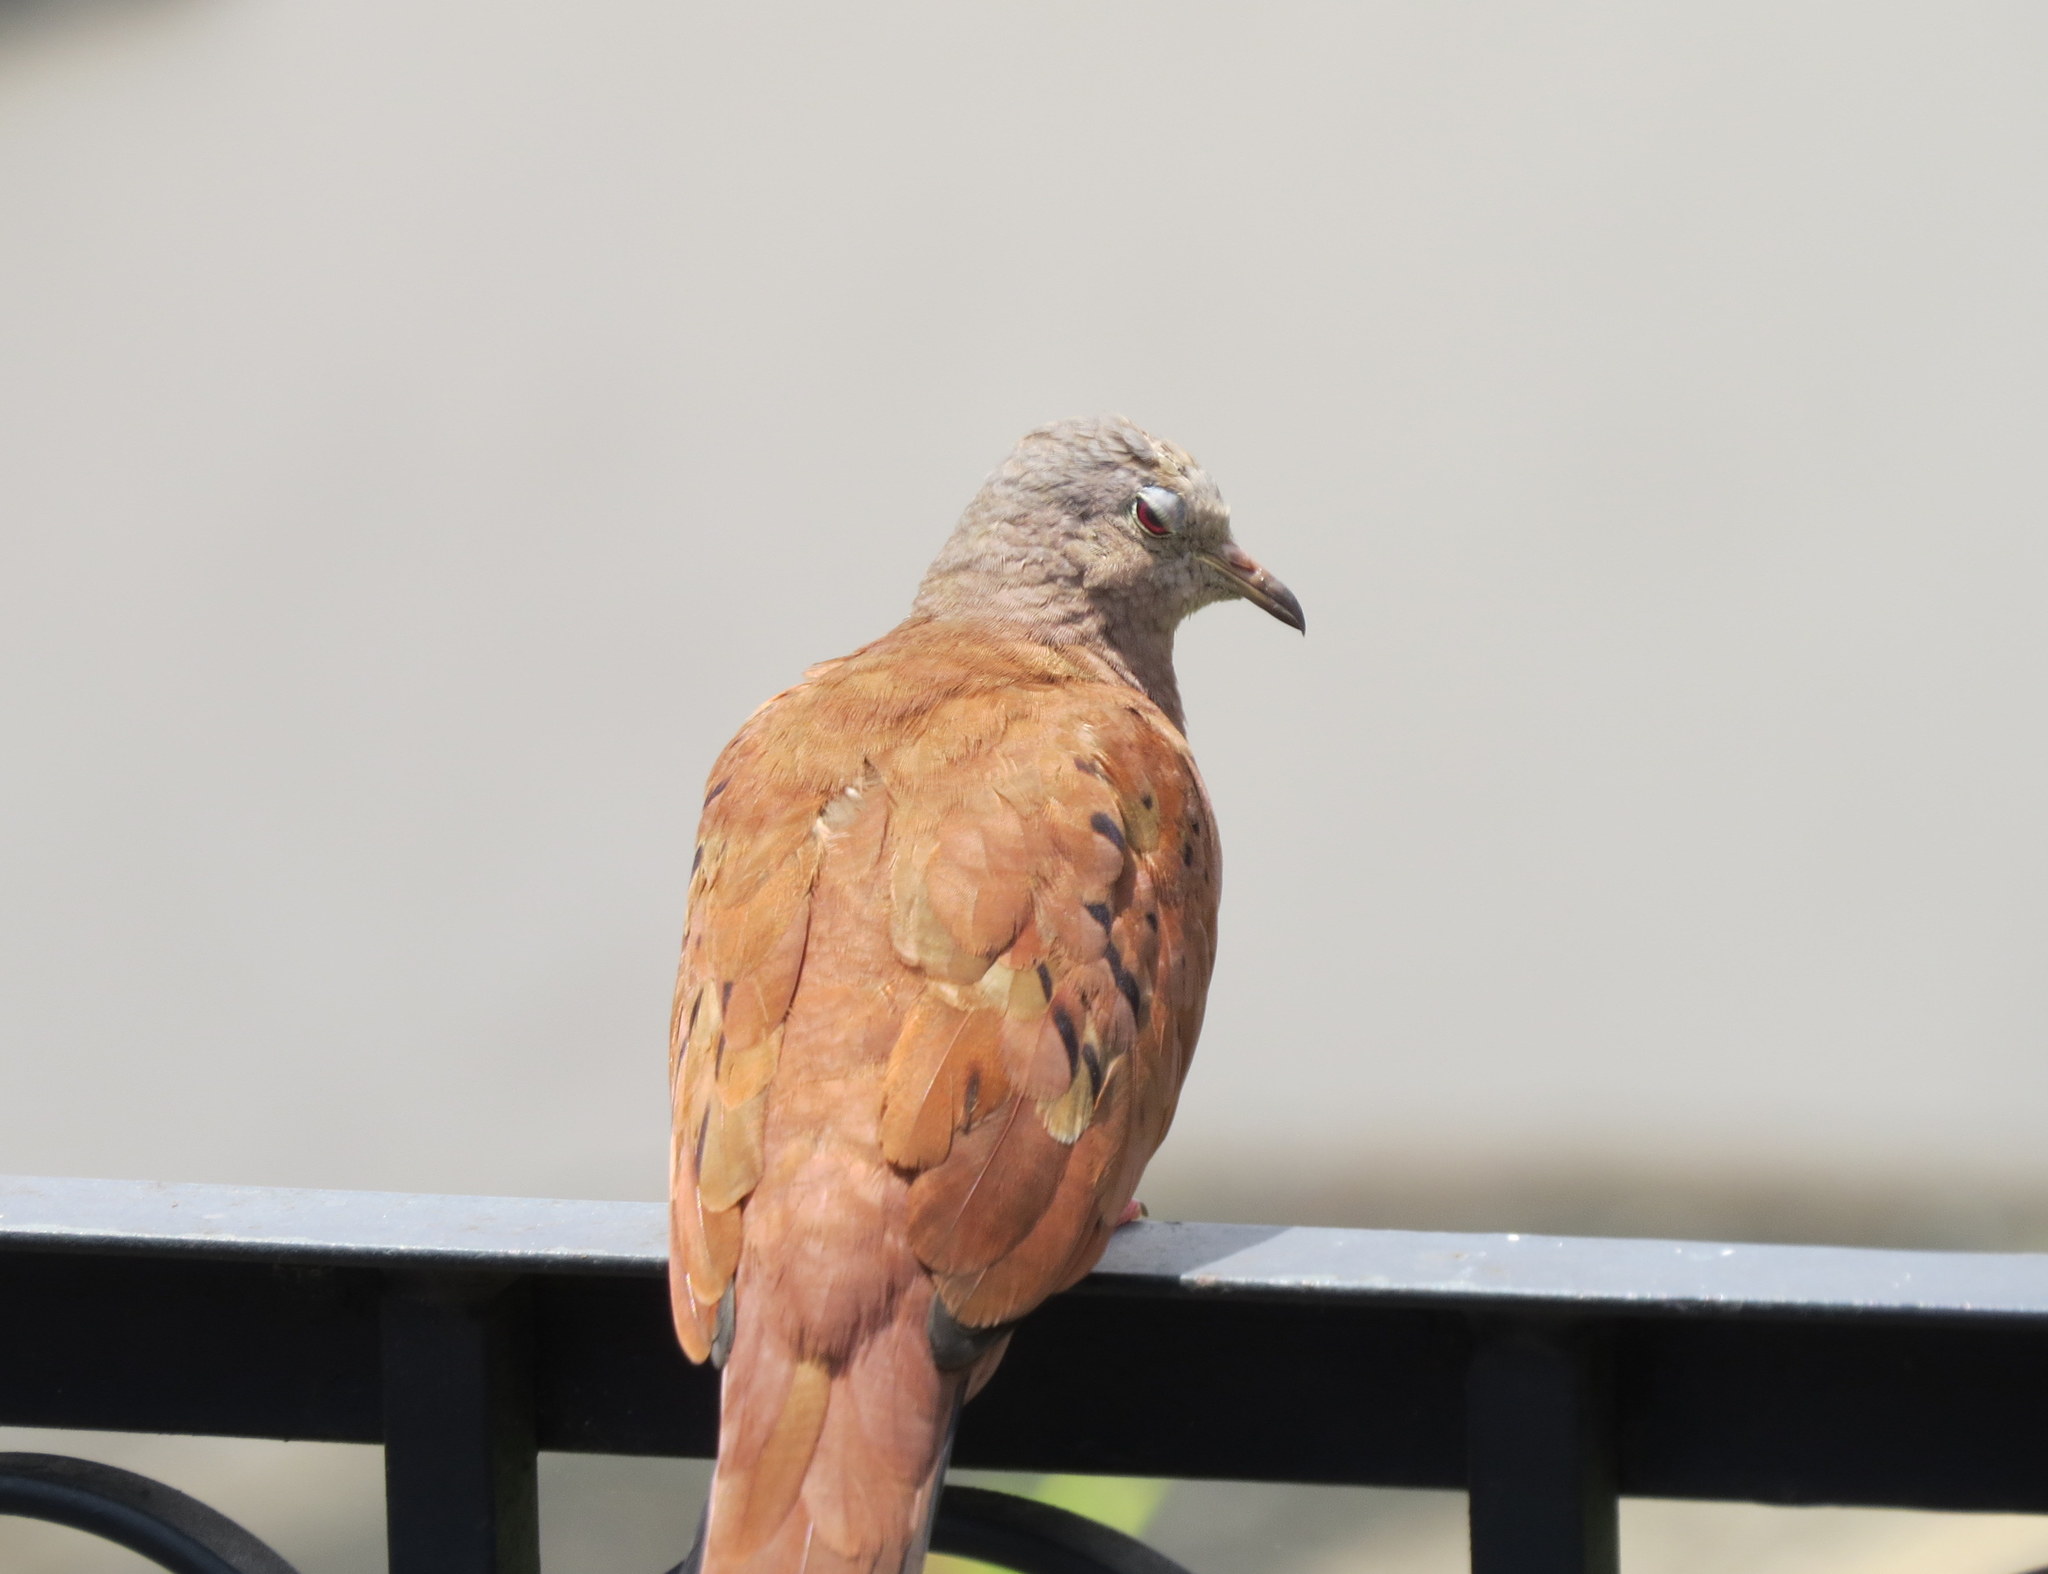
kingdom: Animalia
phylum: Chordata
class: Aves
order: Columbiformes
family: Columbidae
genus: Columbina
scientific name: Columbina talpacoti
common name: Ruddy ground dove
